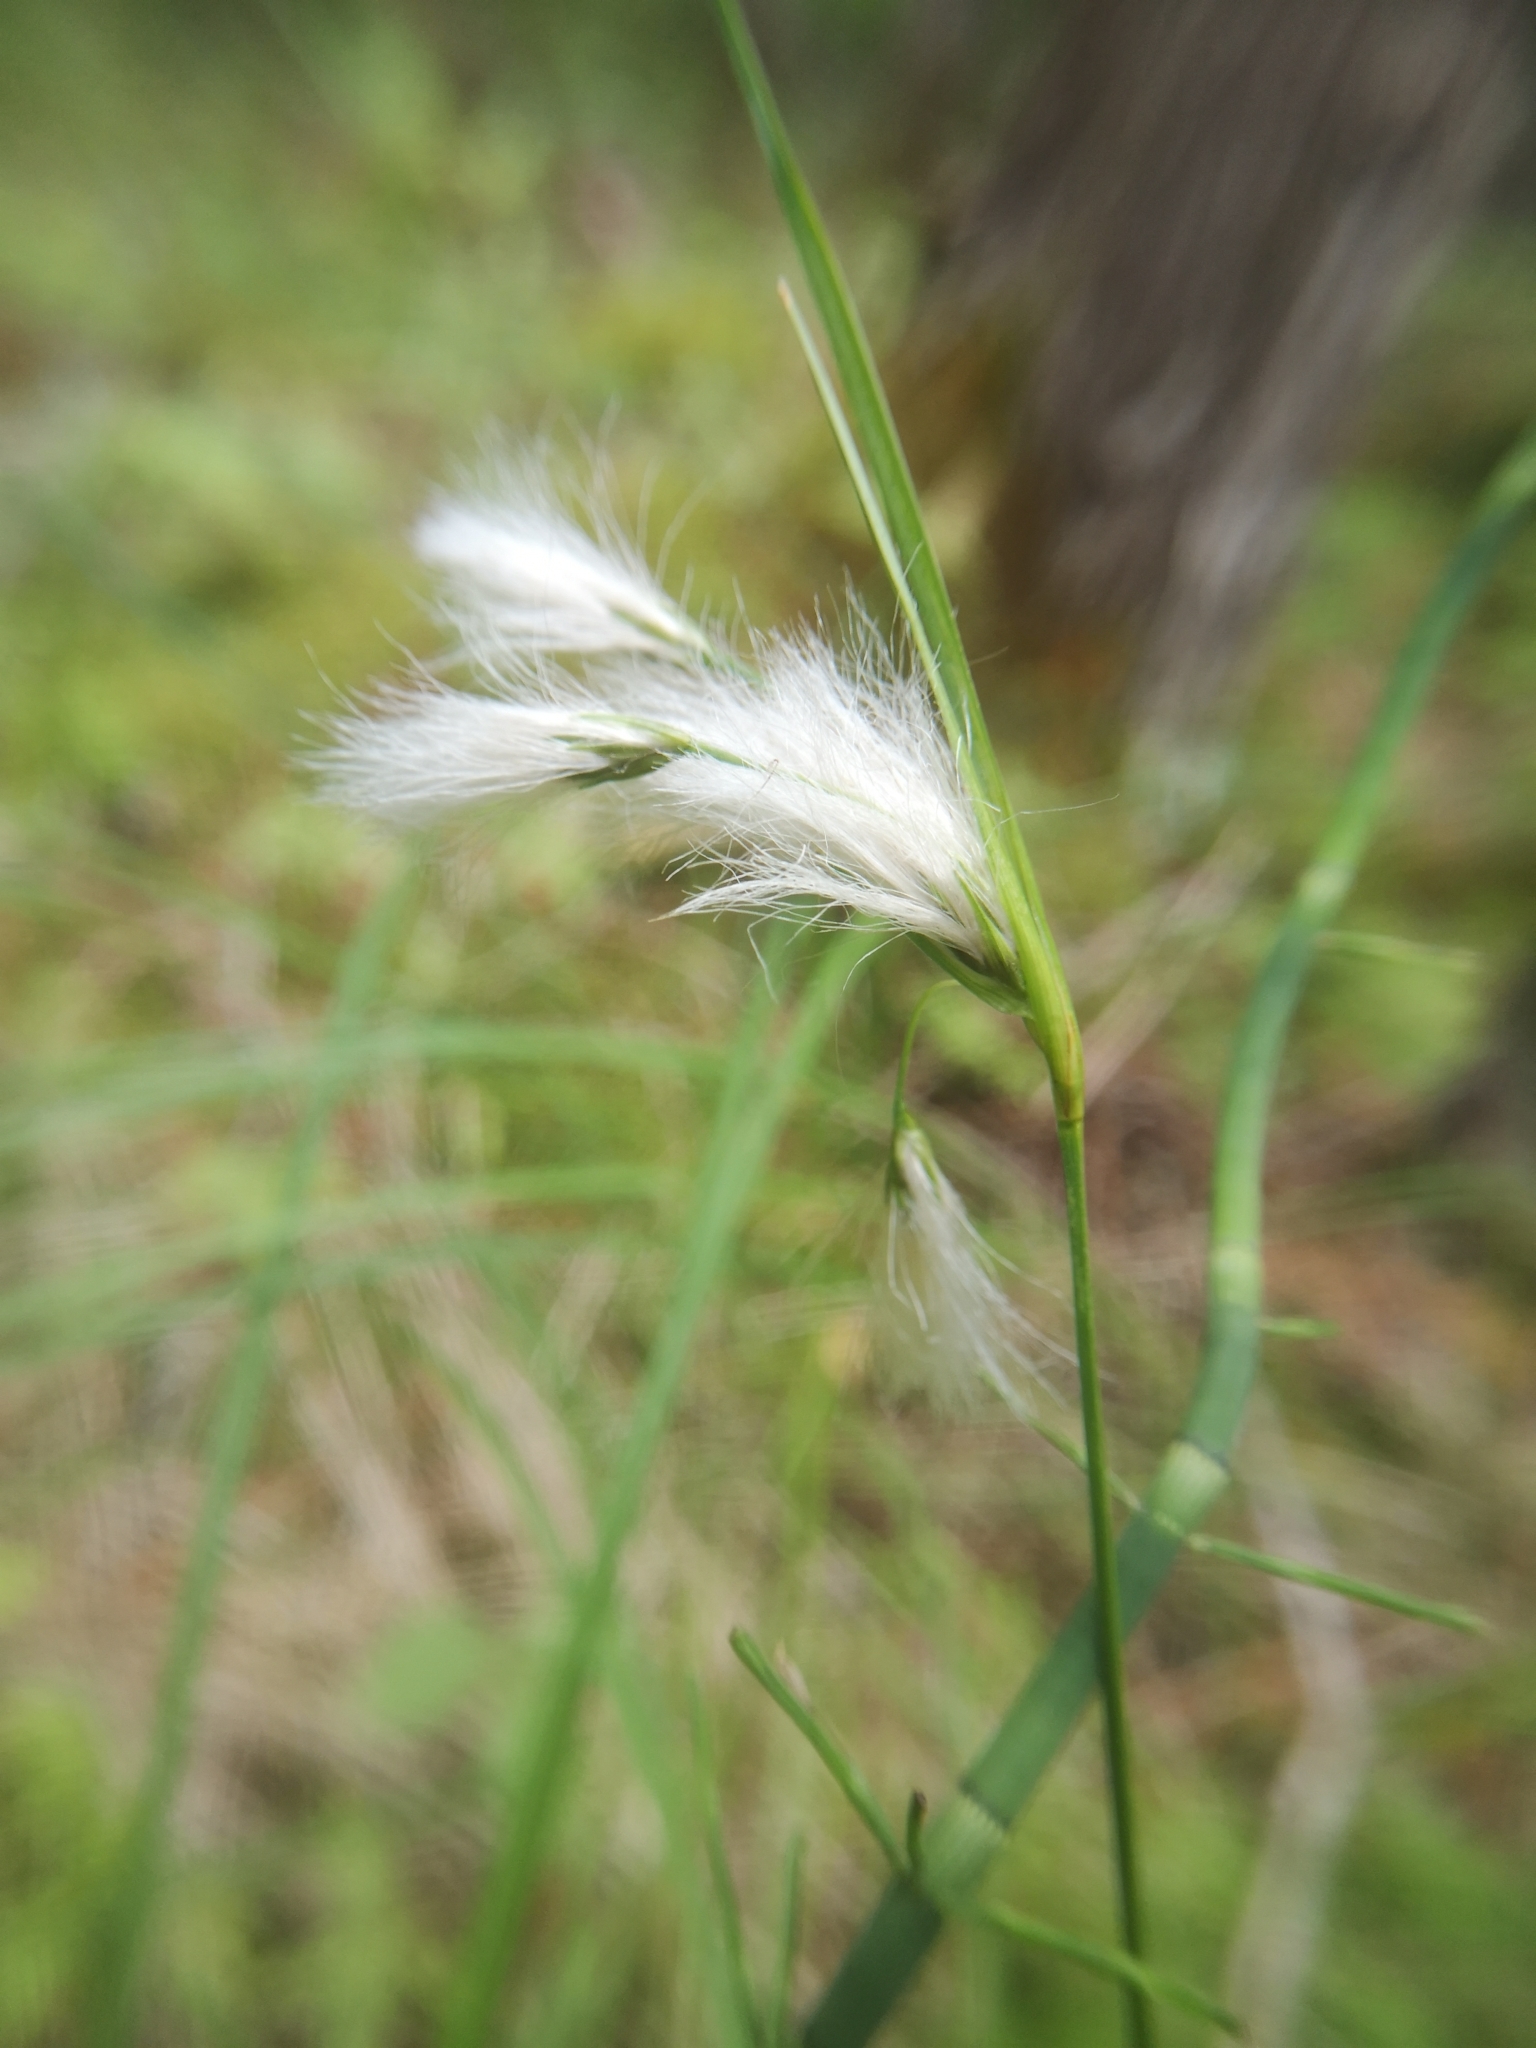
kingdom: Plantae
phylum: Tracheophyta
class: Liliopsida
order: Poales
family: Cyperaceae
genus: Eriophorum
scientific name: Eriophorum viridicarinatum
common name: Green-keeled cottongrass
